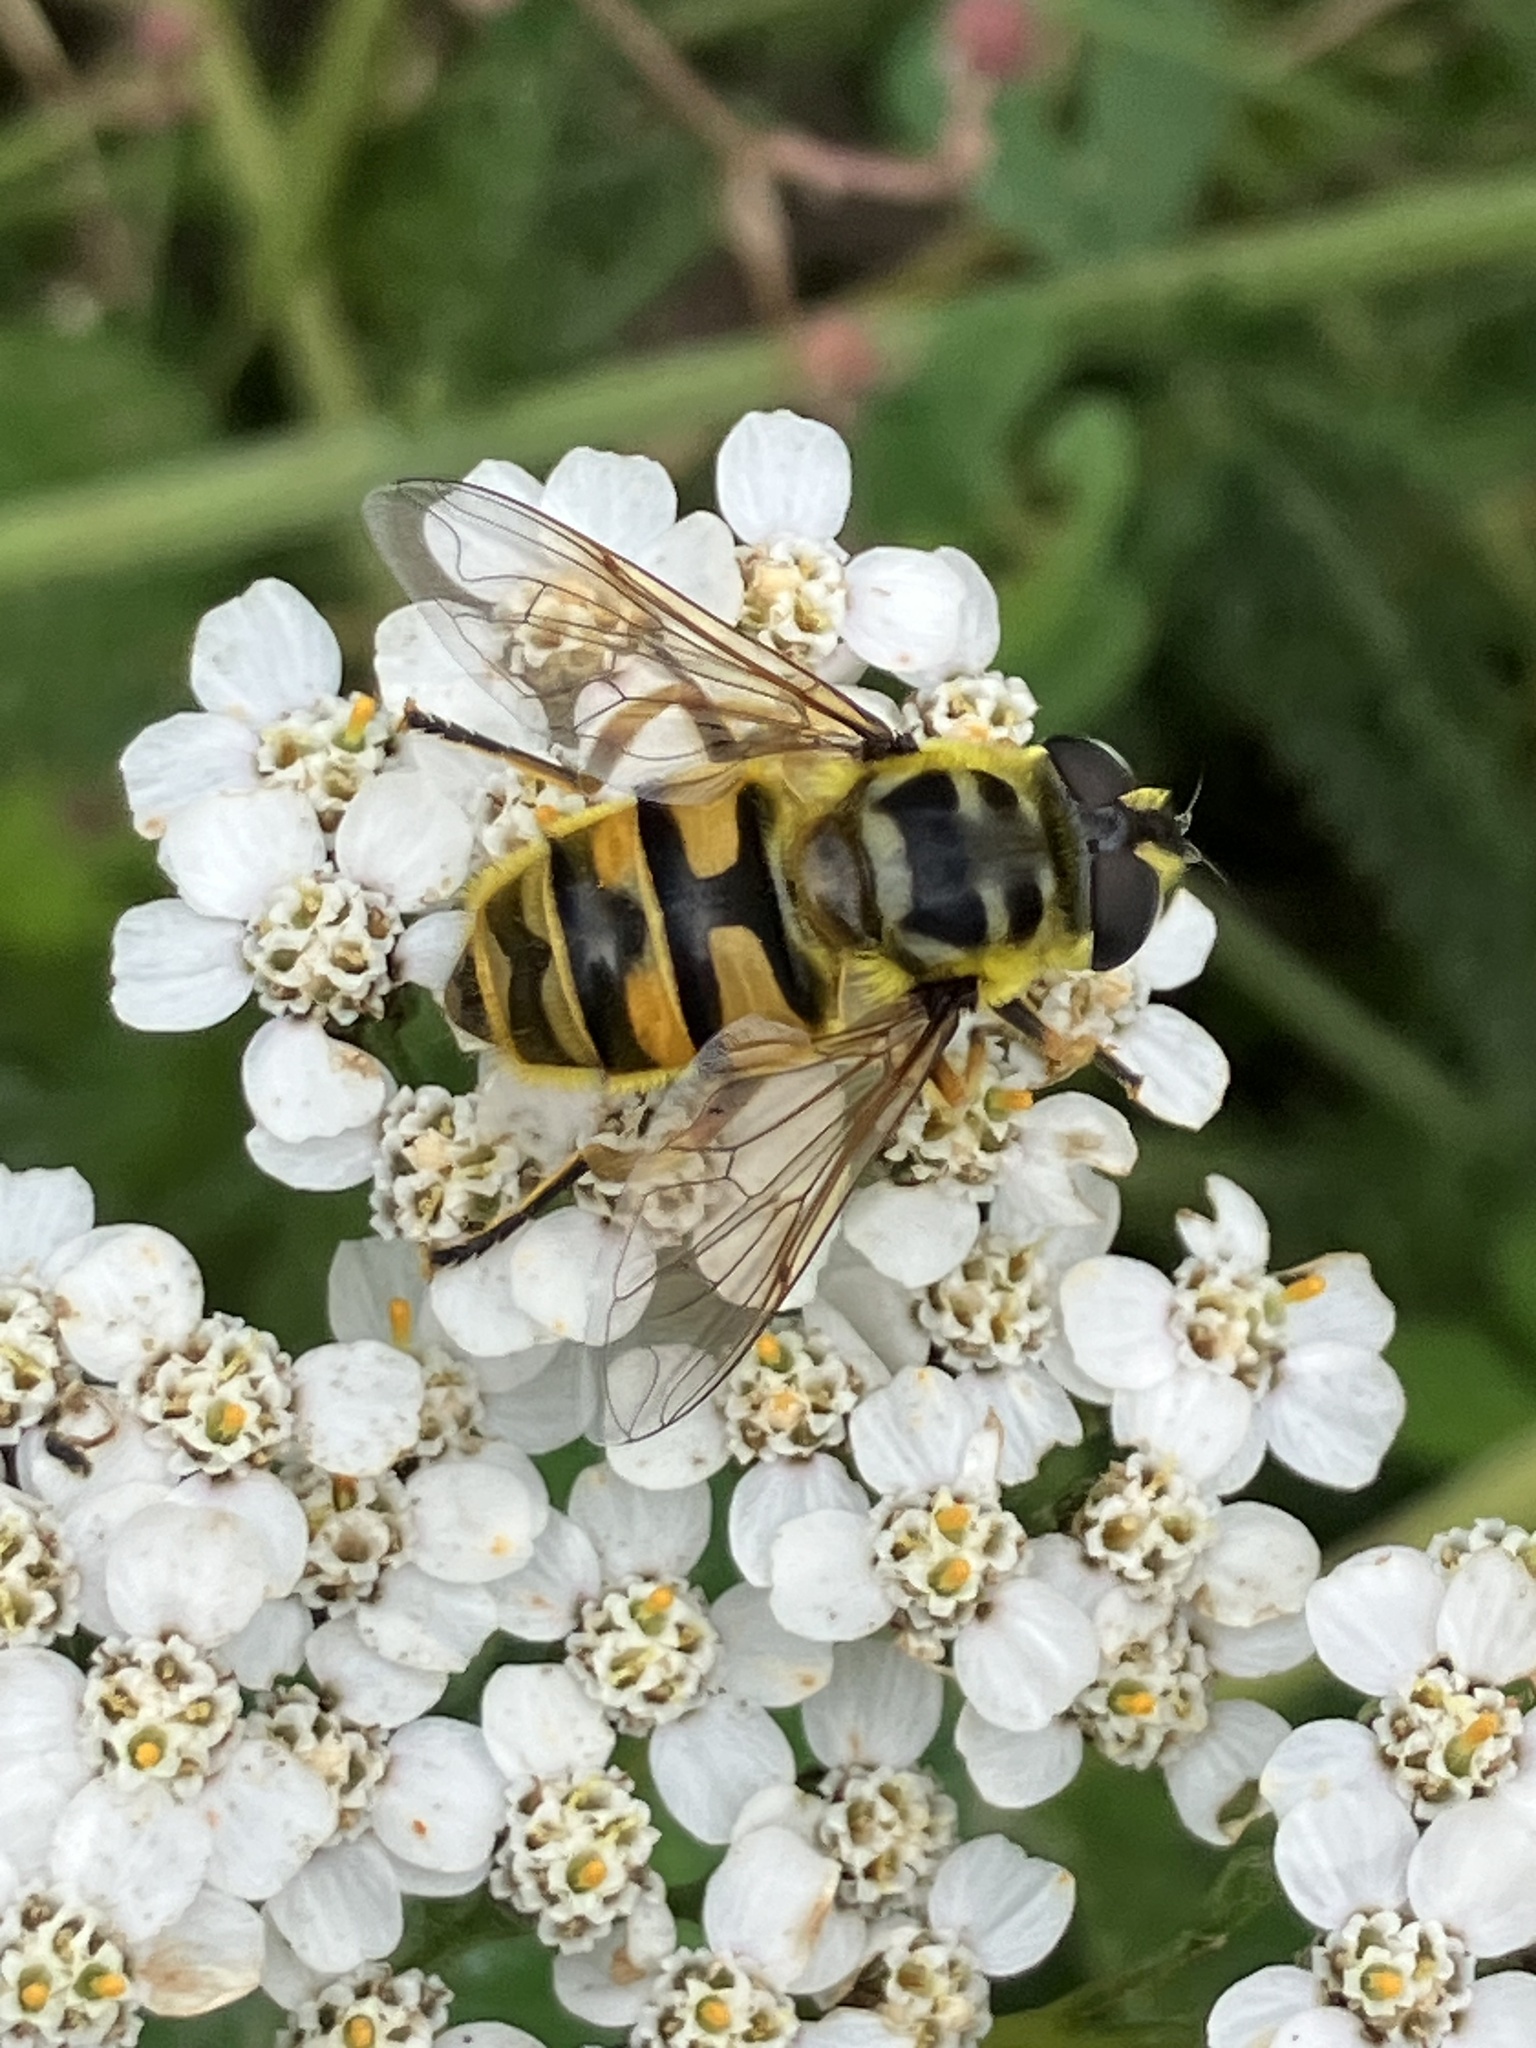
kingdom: Animalia
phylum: Arthropoda
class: Insecta
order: Diptera
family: Syrphidae
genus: Myathropa
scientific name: Myathropa florea
